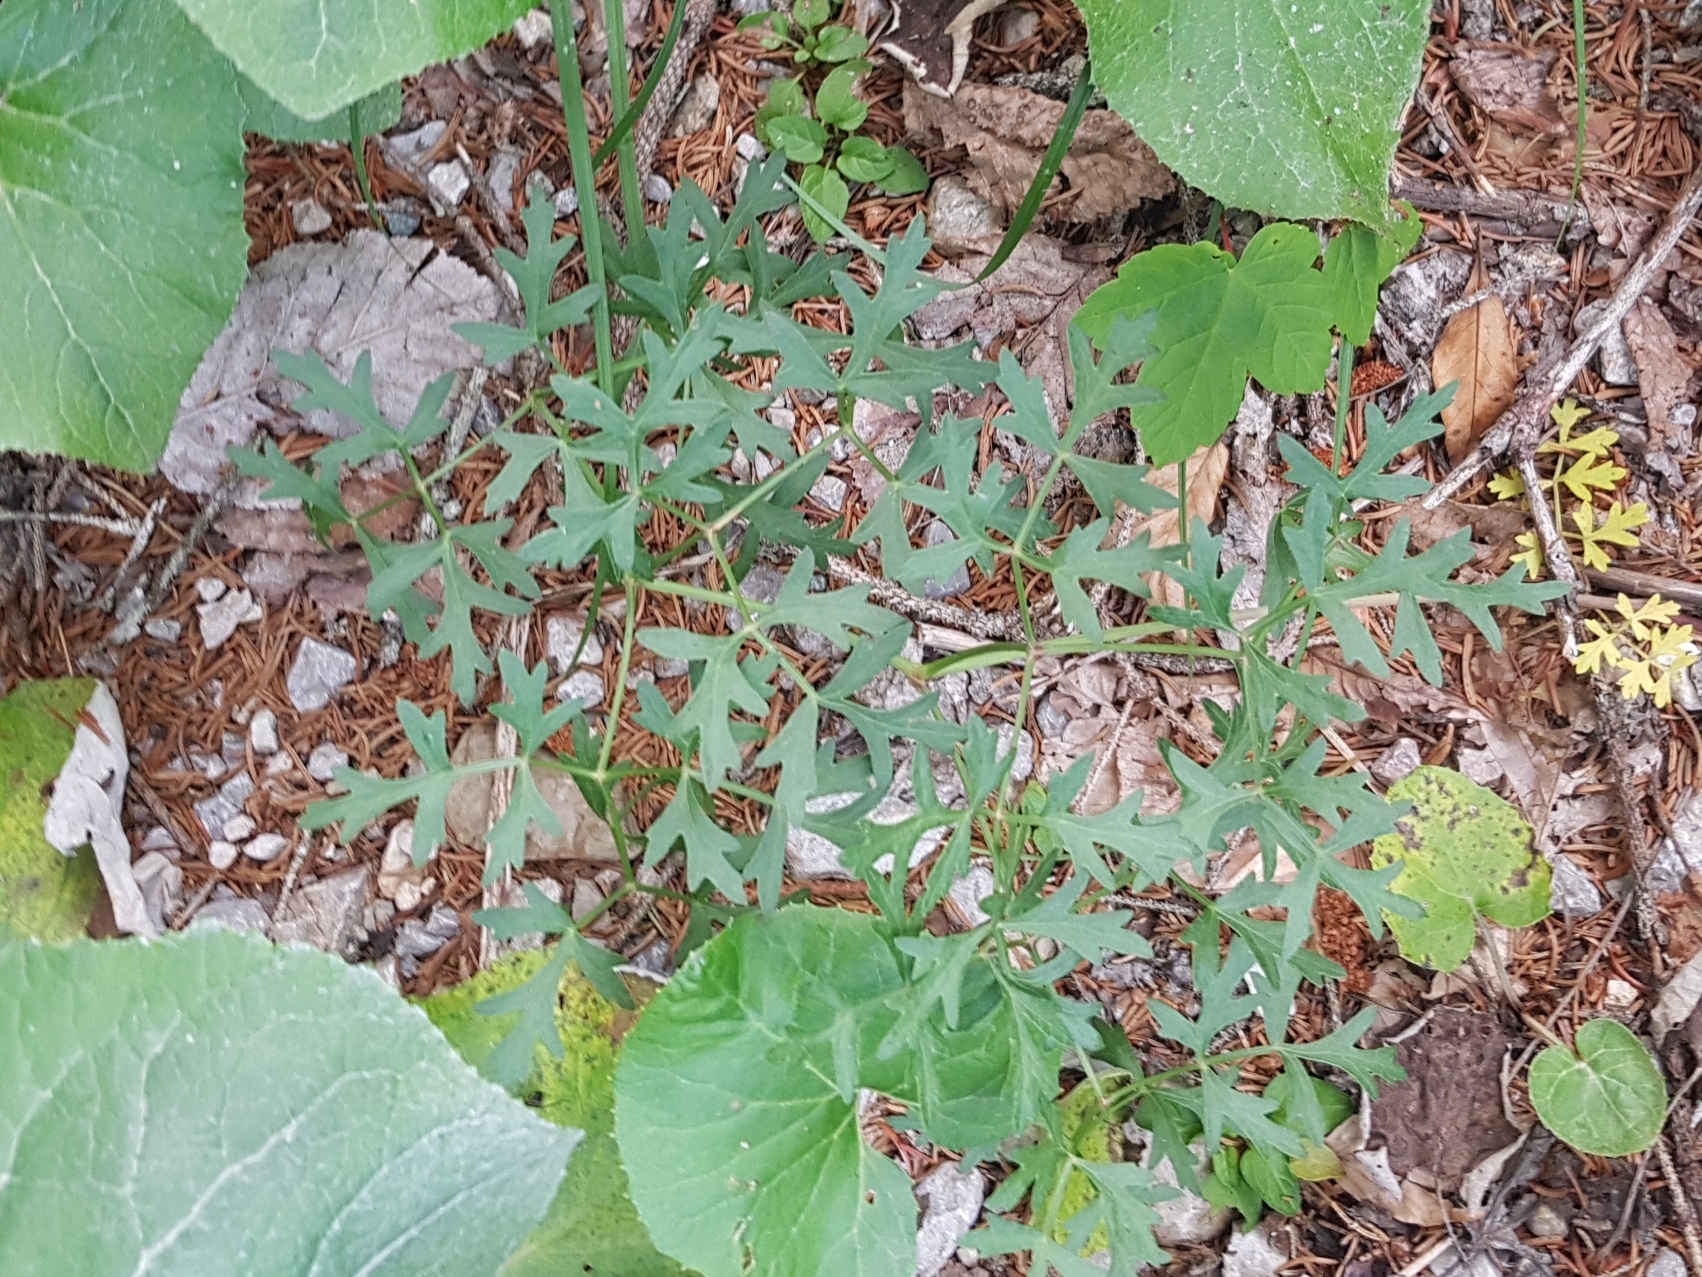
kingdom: Plantae
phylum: Tracheophyta
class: Magnoliopsida
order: Apiales
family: Apiaceae
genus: Oreoselinum
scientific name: Oreoselinum nigrum
